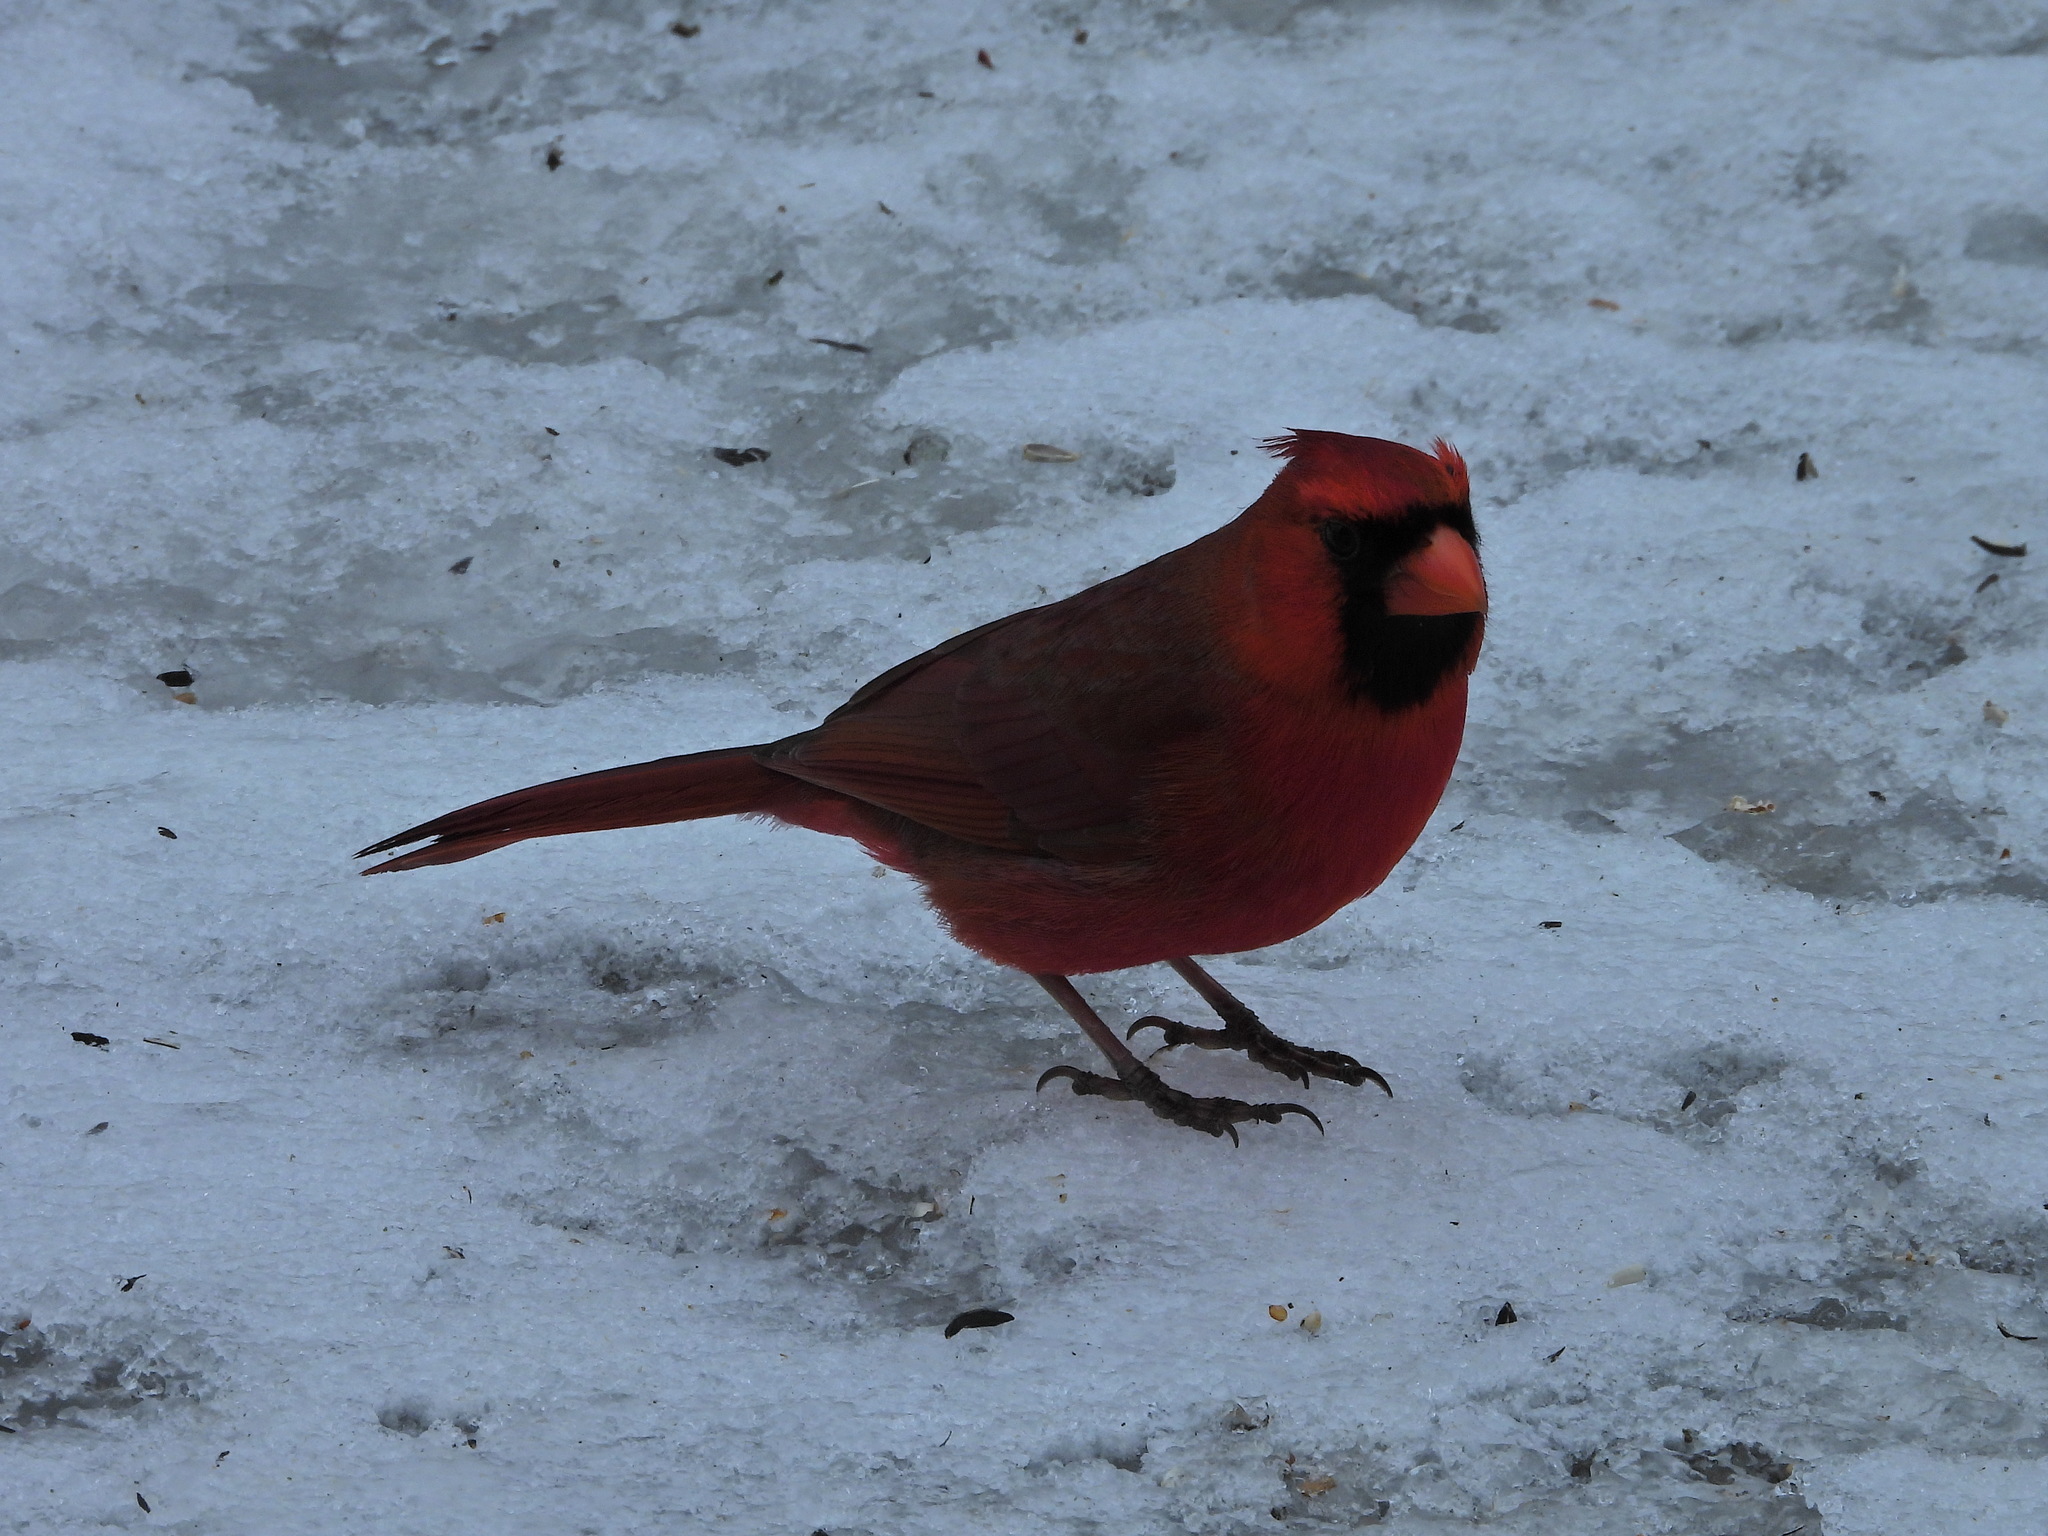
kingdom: Animalia
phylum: Chordata
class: Aves
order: Passeriformes
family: Cardinalidae
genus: Cardinalis
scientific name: Cardinalis cardinalis
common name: Northern cardinal
